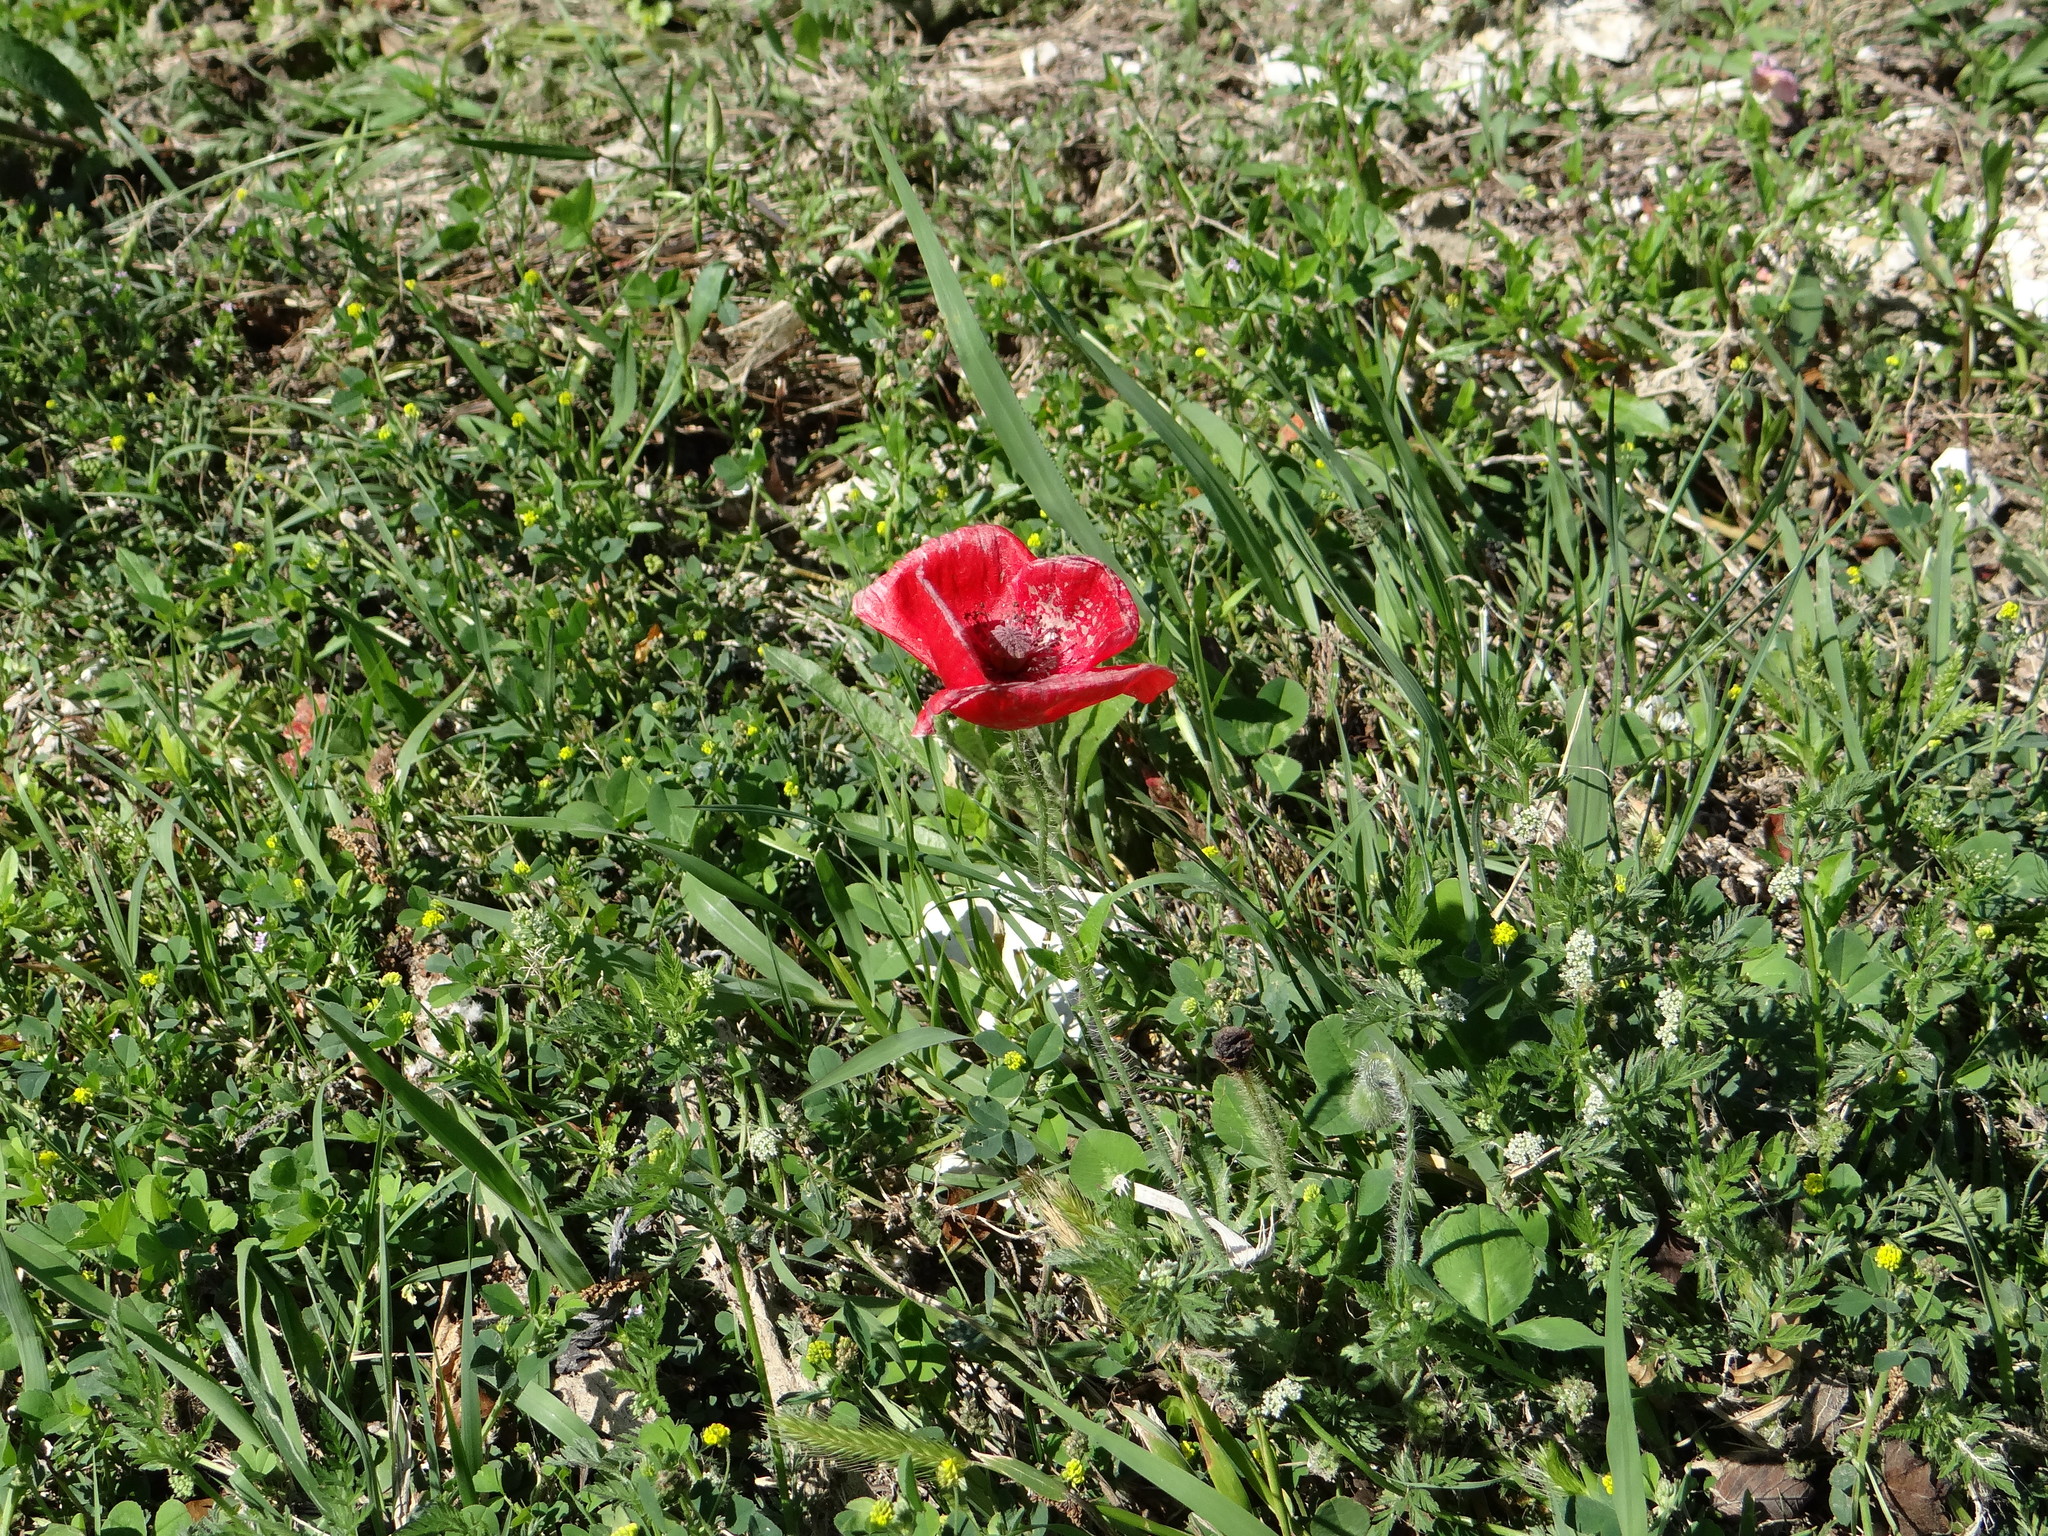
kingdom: Plantae
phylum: Tracheophyta
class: Magnoliopsida
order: Ranunculales
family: Papaveraceae
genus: Papaver
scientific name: Papaver rhoeas
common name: Corn poppy
